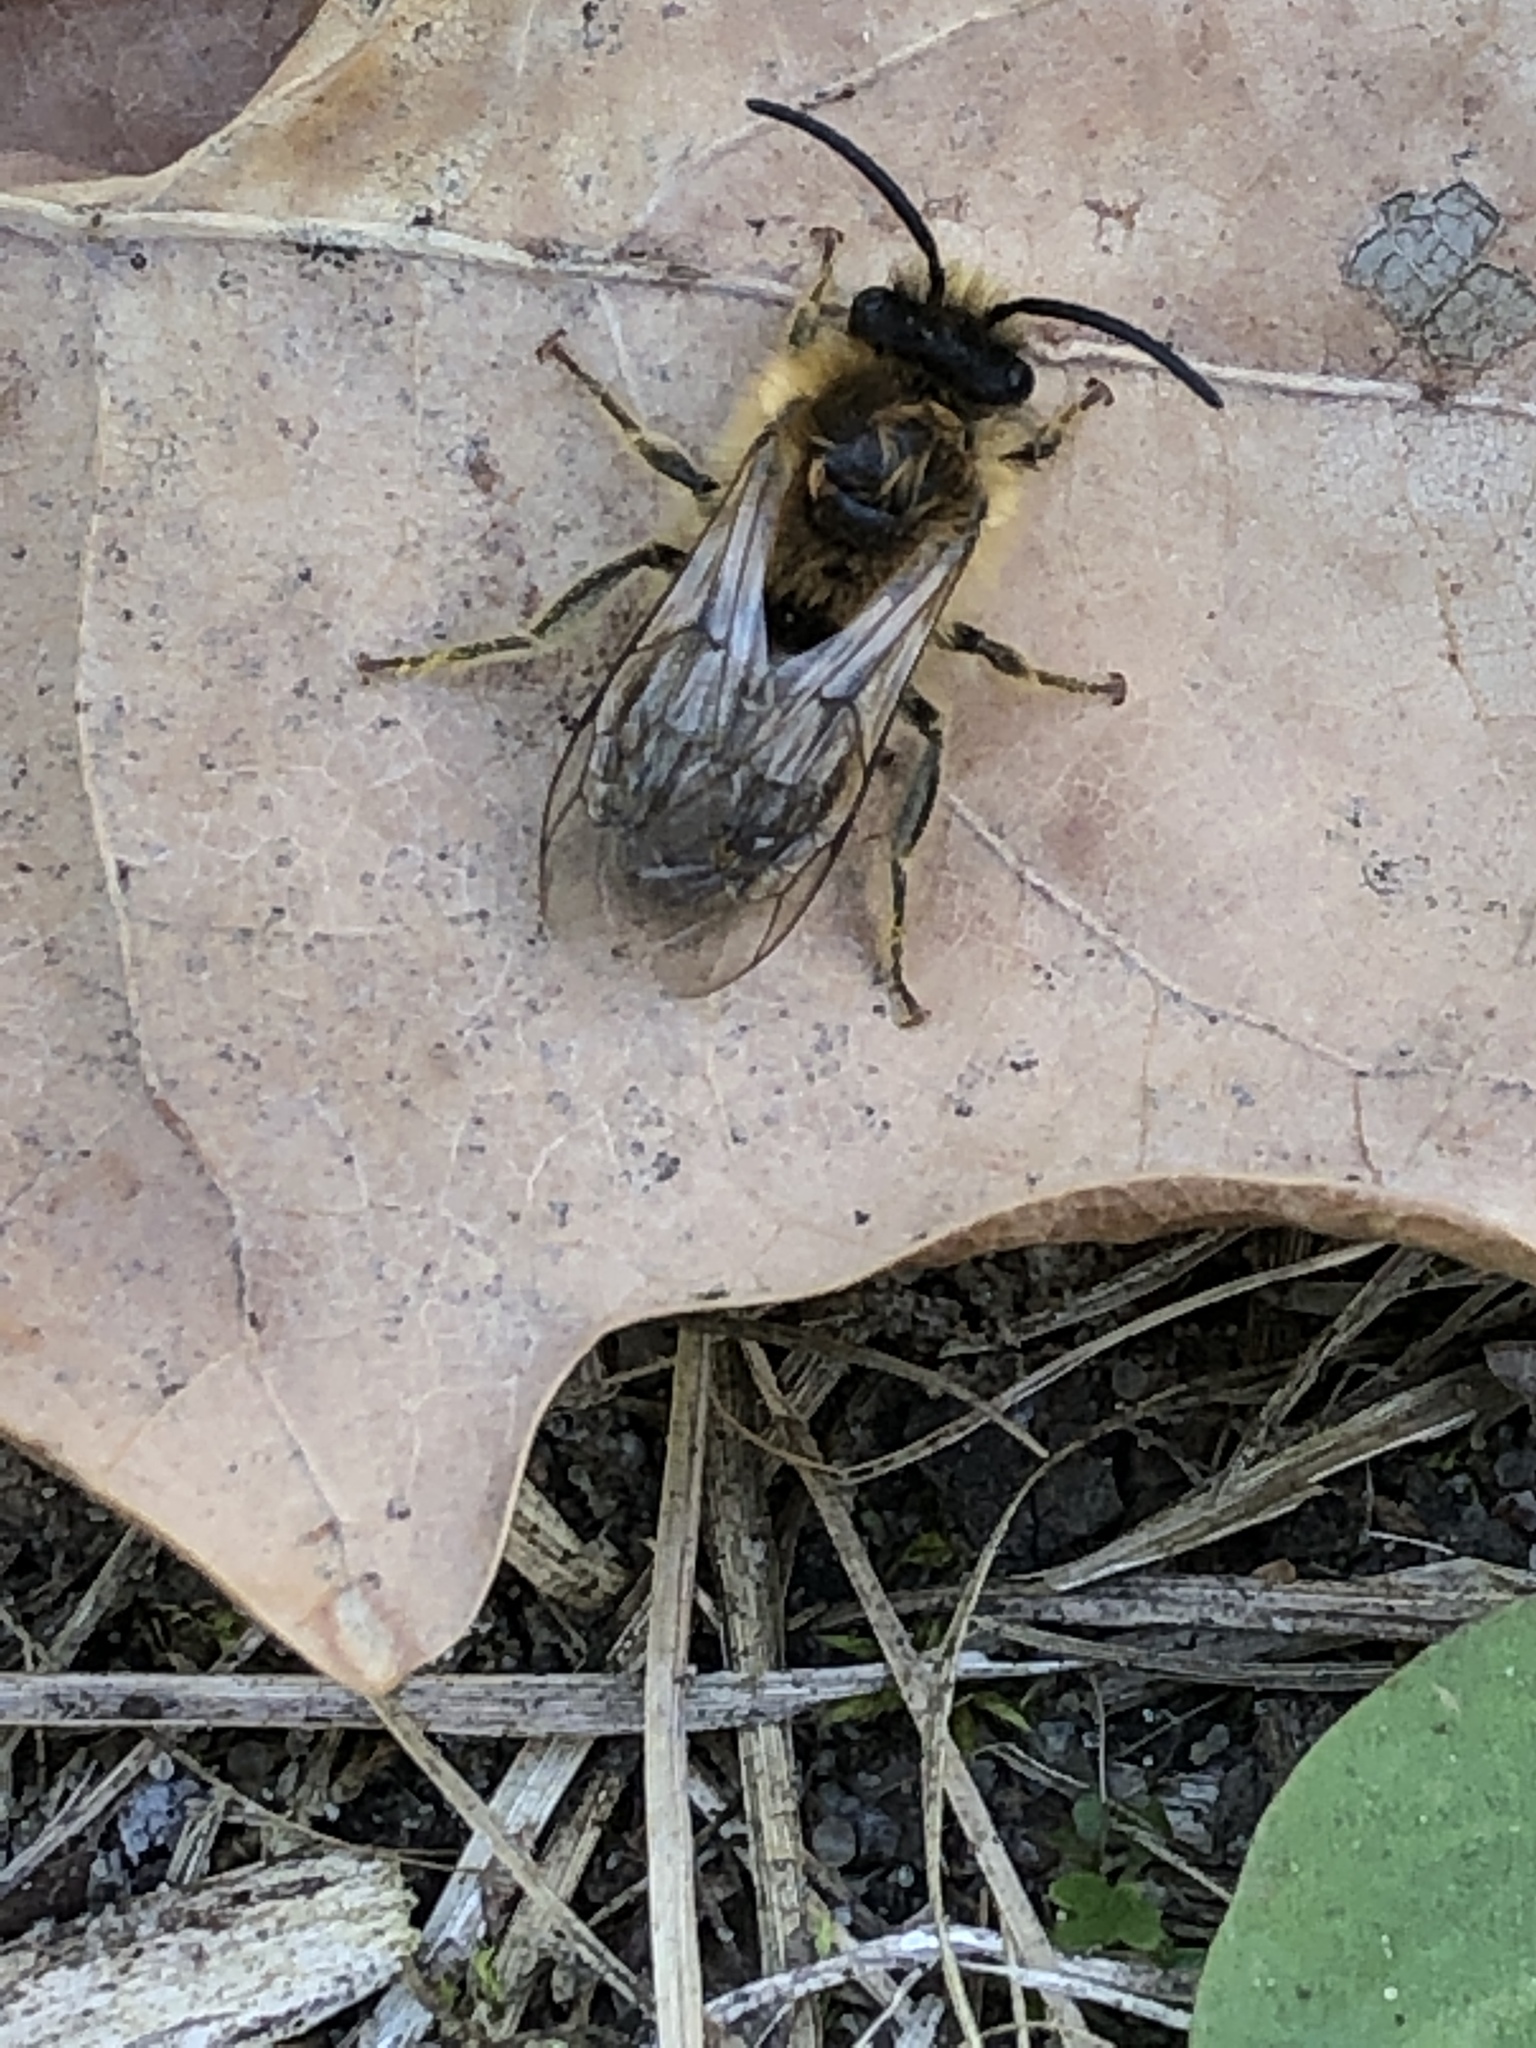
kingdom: Animalia
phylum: Arthropoda
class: Insecta
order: Hymenoptera
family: Colletidae
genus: Colletes
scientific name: Colletes cunicularius
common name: Early colletes
